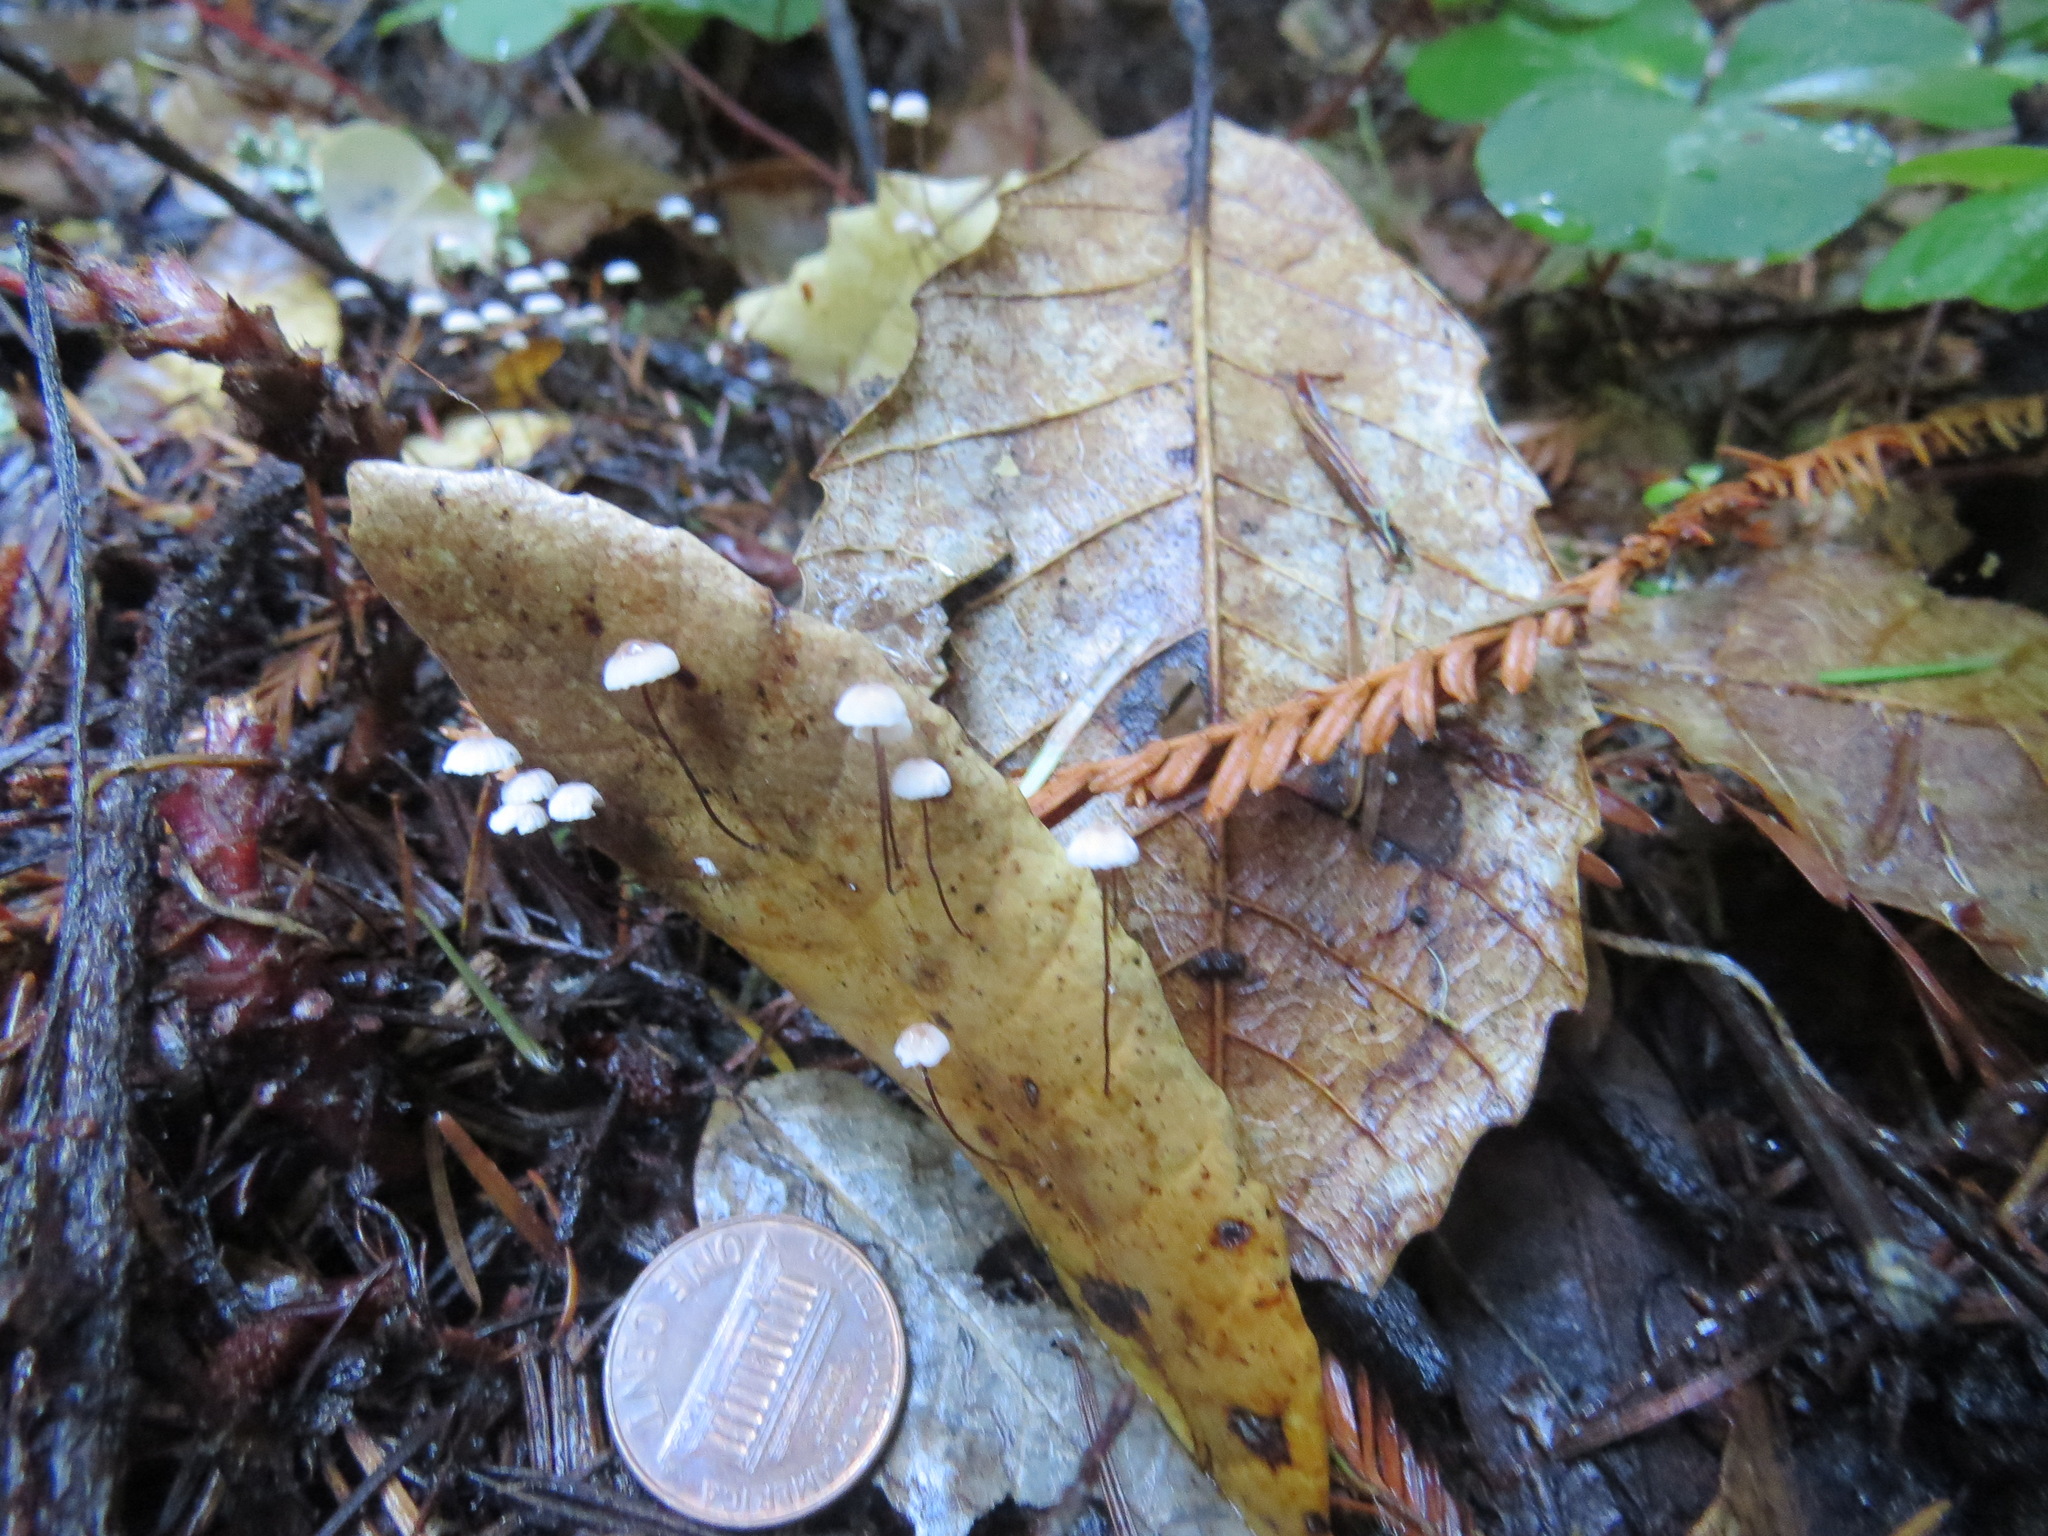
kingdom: Fungi
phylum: Basidiomycota
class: Agaricomycetes
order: Agaricales
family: Omphalotaceae
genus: Collybiopsis
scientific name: Collybiopsis quercophila
